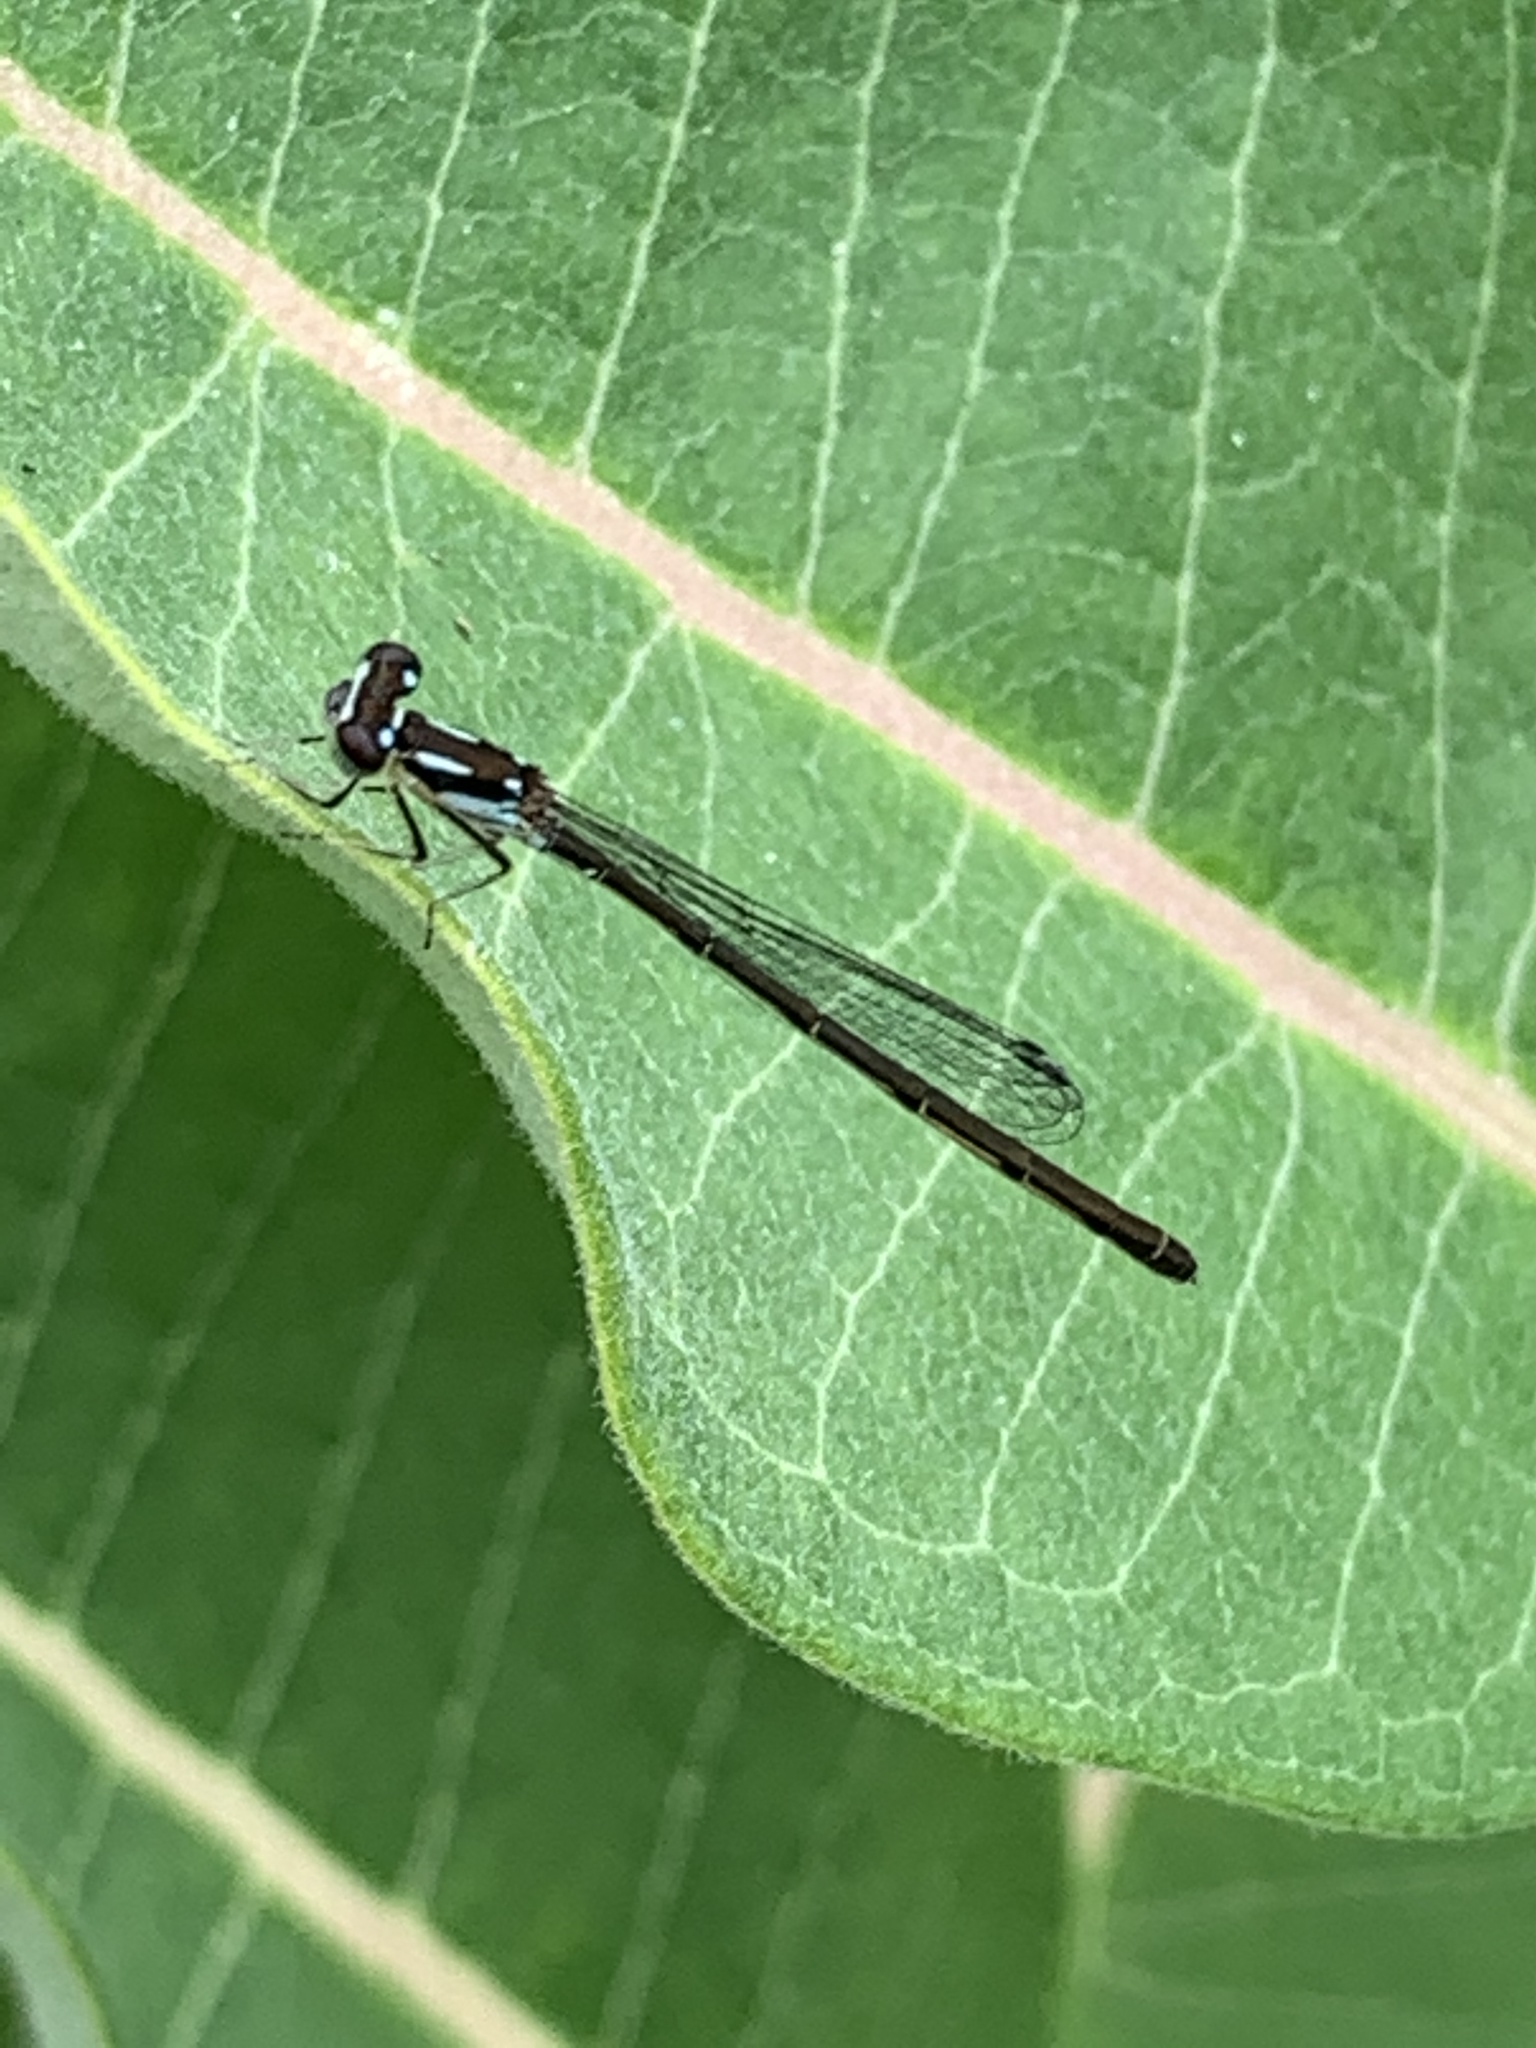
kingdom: Animalia
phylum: Arthropoda
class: Insecta
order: Odonata
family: Coenagrionidae
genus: Ischnura
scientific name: Ischnura posita
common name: Fragile forktail
